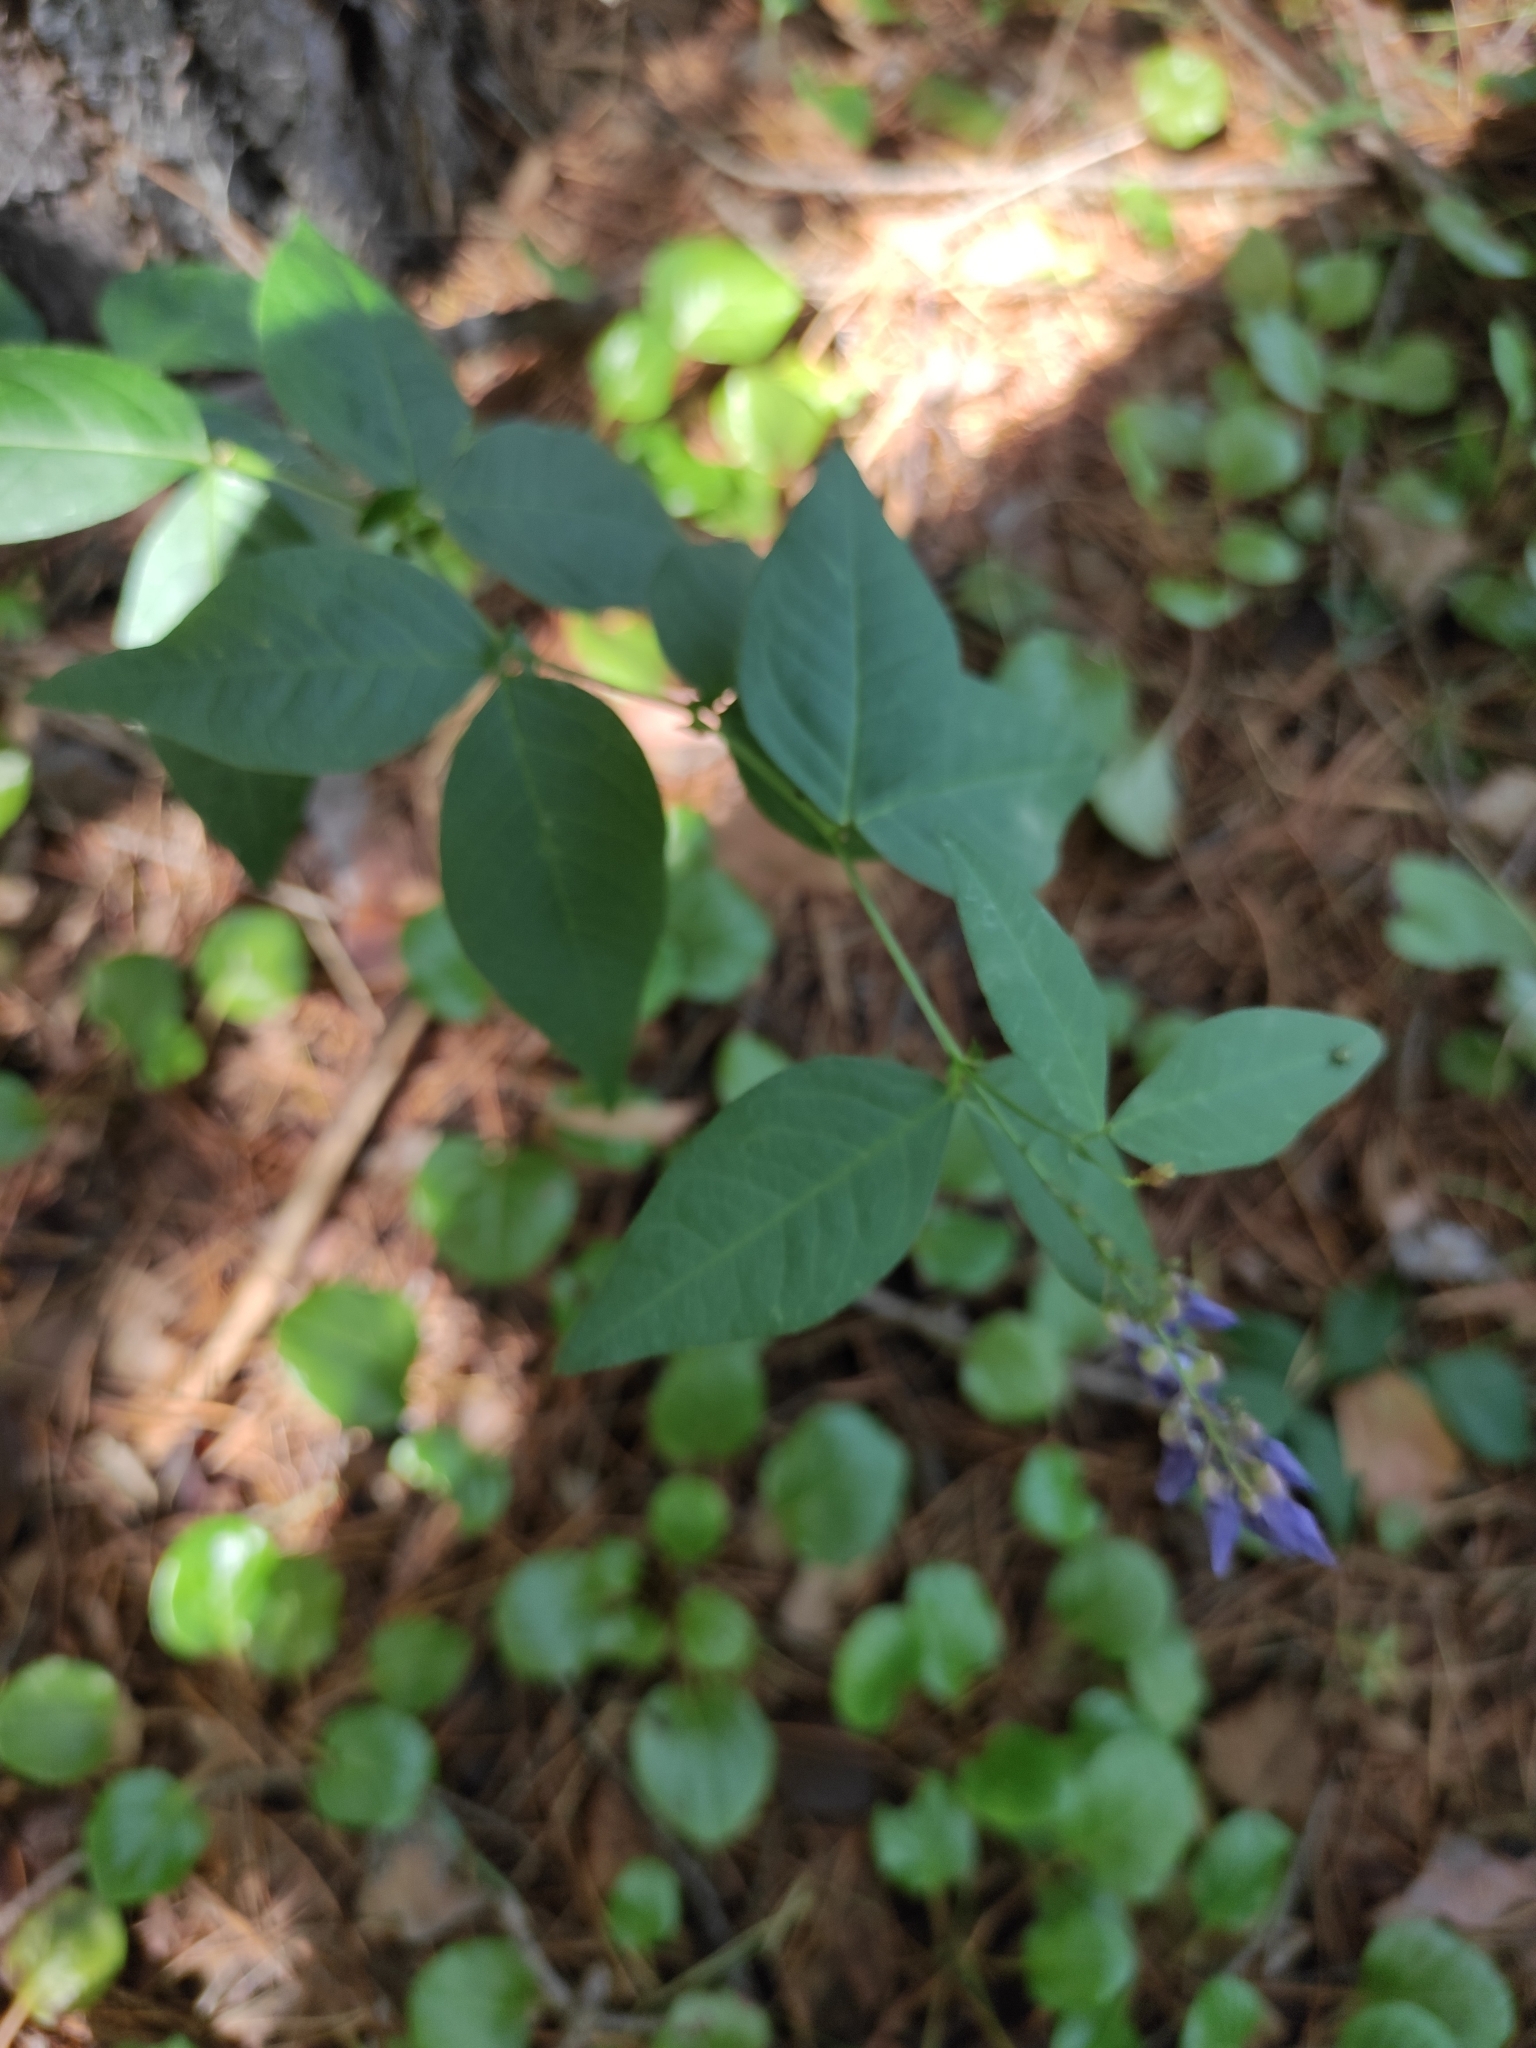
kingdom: Plantae
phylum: Tracheophyta
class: Magnoliopsida
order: Fabales
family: Fabaceae
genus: Vicia
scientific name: Vicia unijuga
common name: Two-leaf vetch
